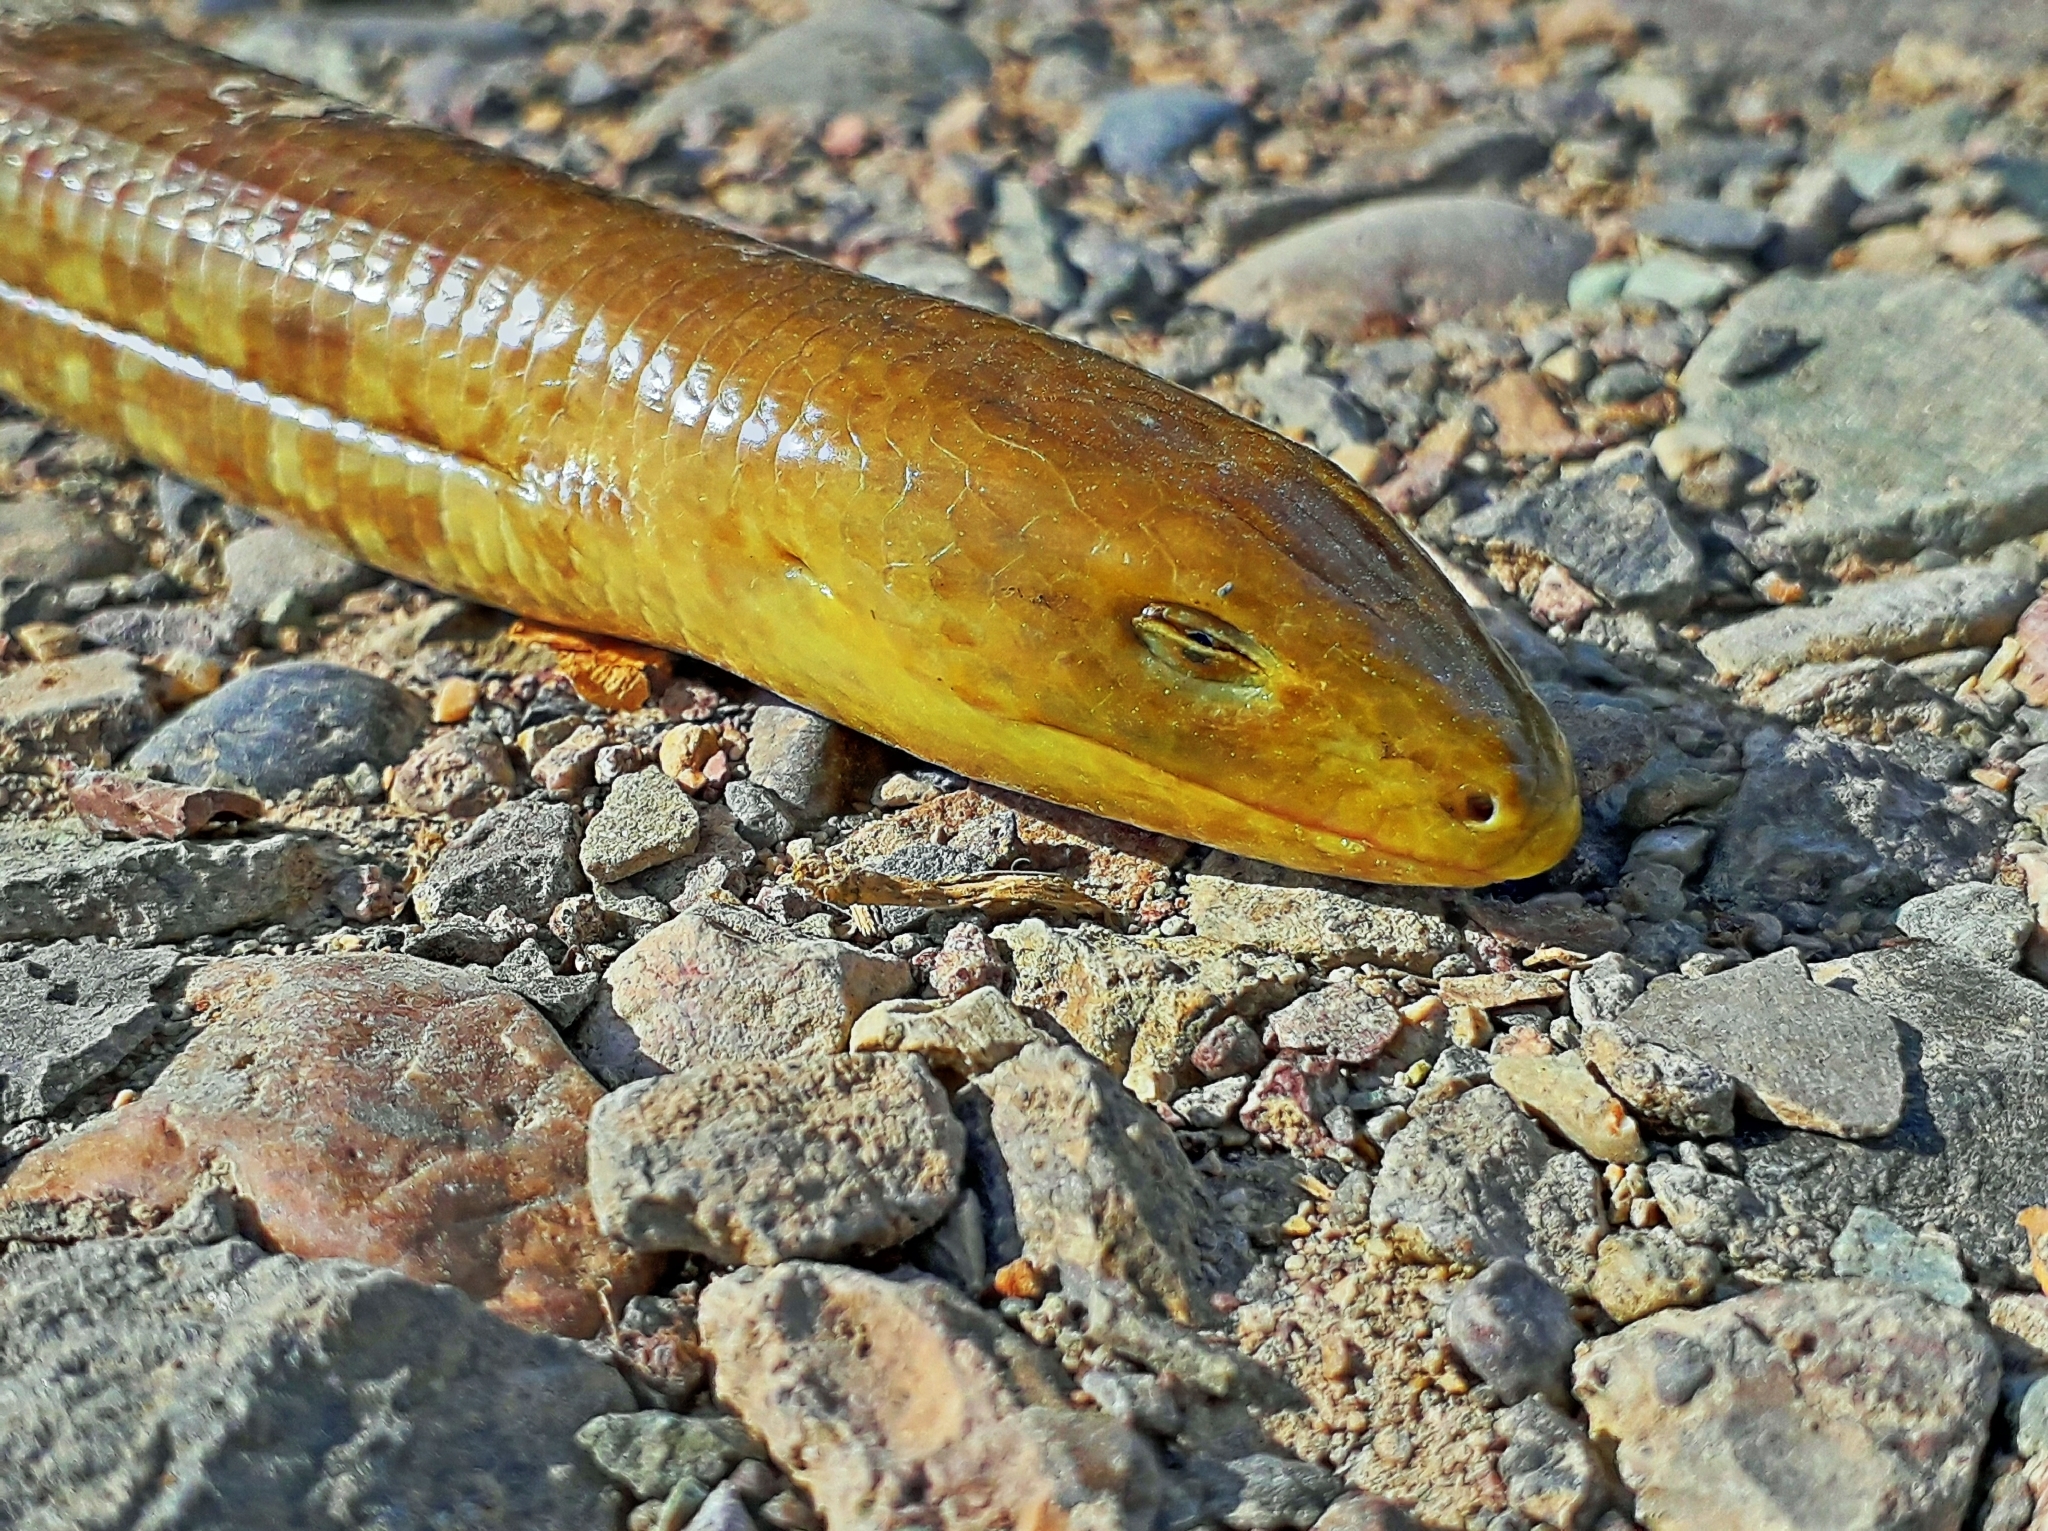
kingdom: Animalia
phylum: Chordata
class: Squamata
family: Anguidae
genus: Pseudopus
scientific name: Pseudopus apodus
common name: European glass lizard
